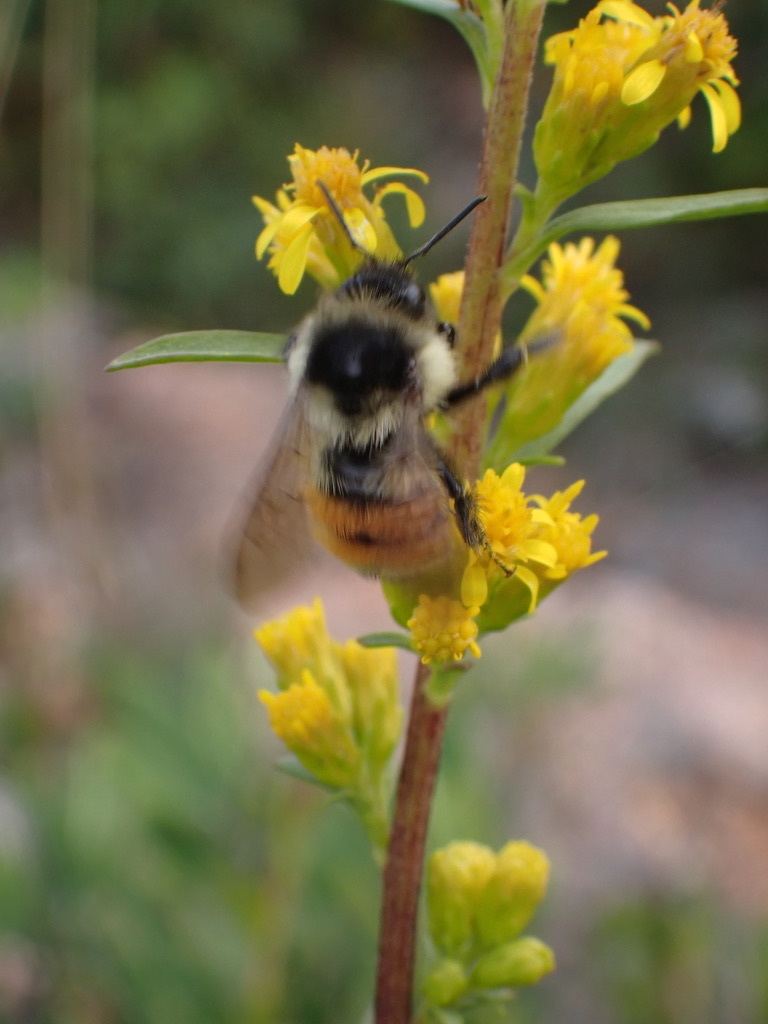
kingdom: Animalia
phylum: Arthropoda
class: Insecta
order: Hymenoptera
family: Apidae
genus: Bombus
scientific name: Bombus ternarius
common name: Tri-colored bumble bee
